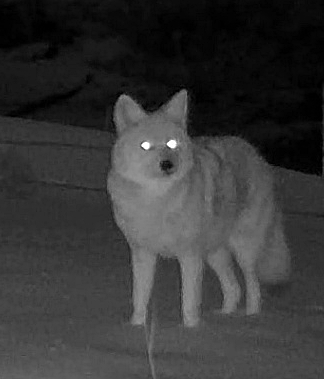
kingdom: Animalia
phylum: Chordata
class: Mammalia
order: Carnivora
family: Canidae
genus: Canis
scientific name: Canis latrans
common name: Coyote
